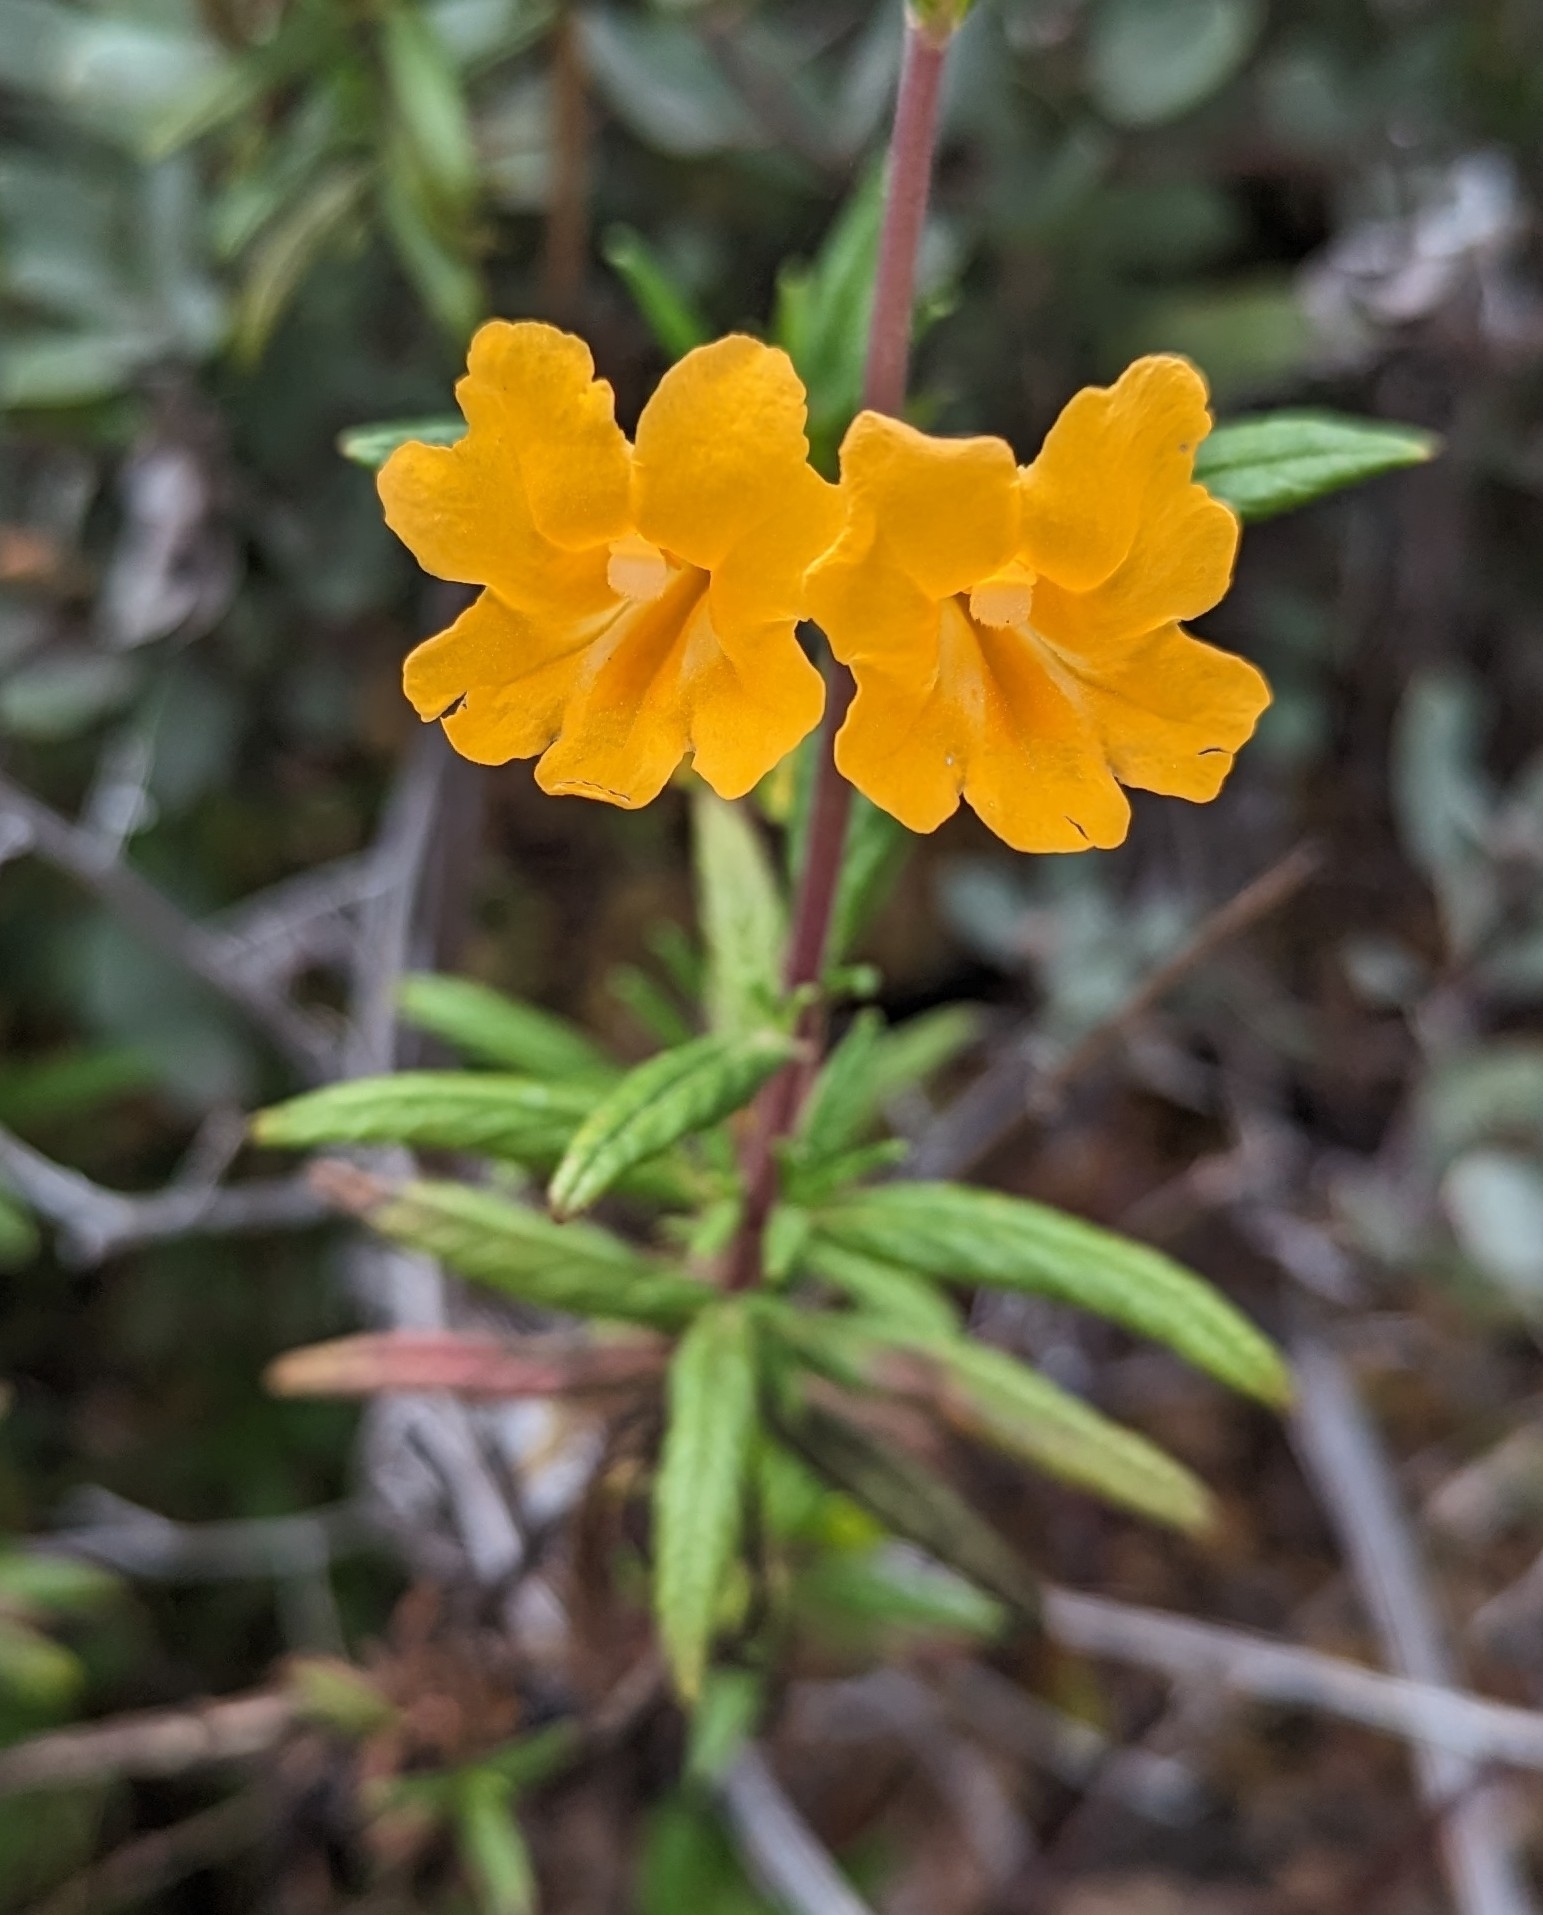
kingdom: Plantae
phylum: Tracheophyta
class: Magnoliopsida
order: Lamiales
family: Phrymaceae
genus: Diplacus
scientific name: Diplacus aurantiacus
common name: Bush monkey-flower
